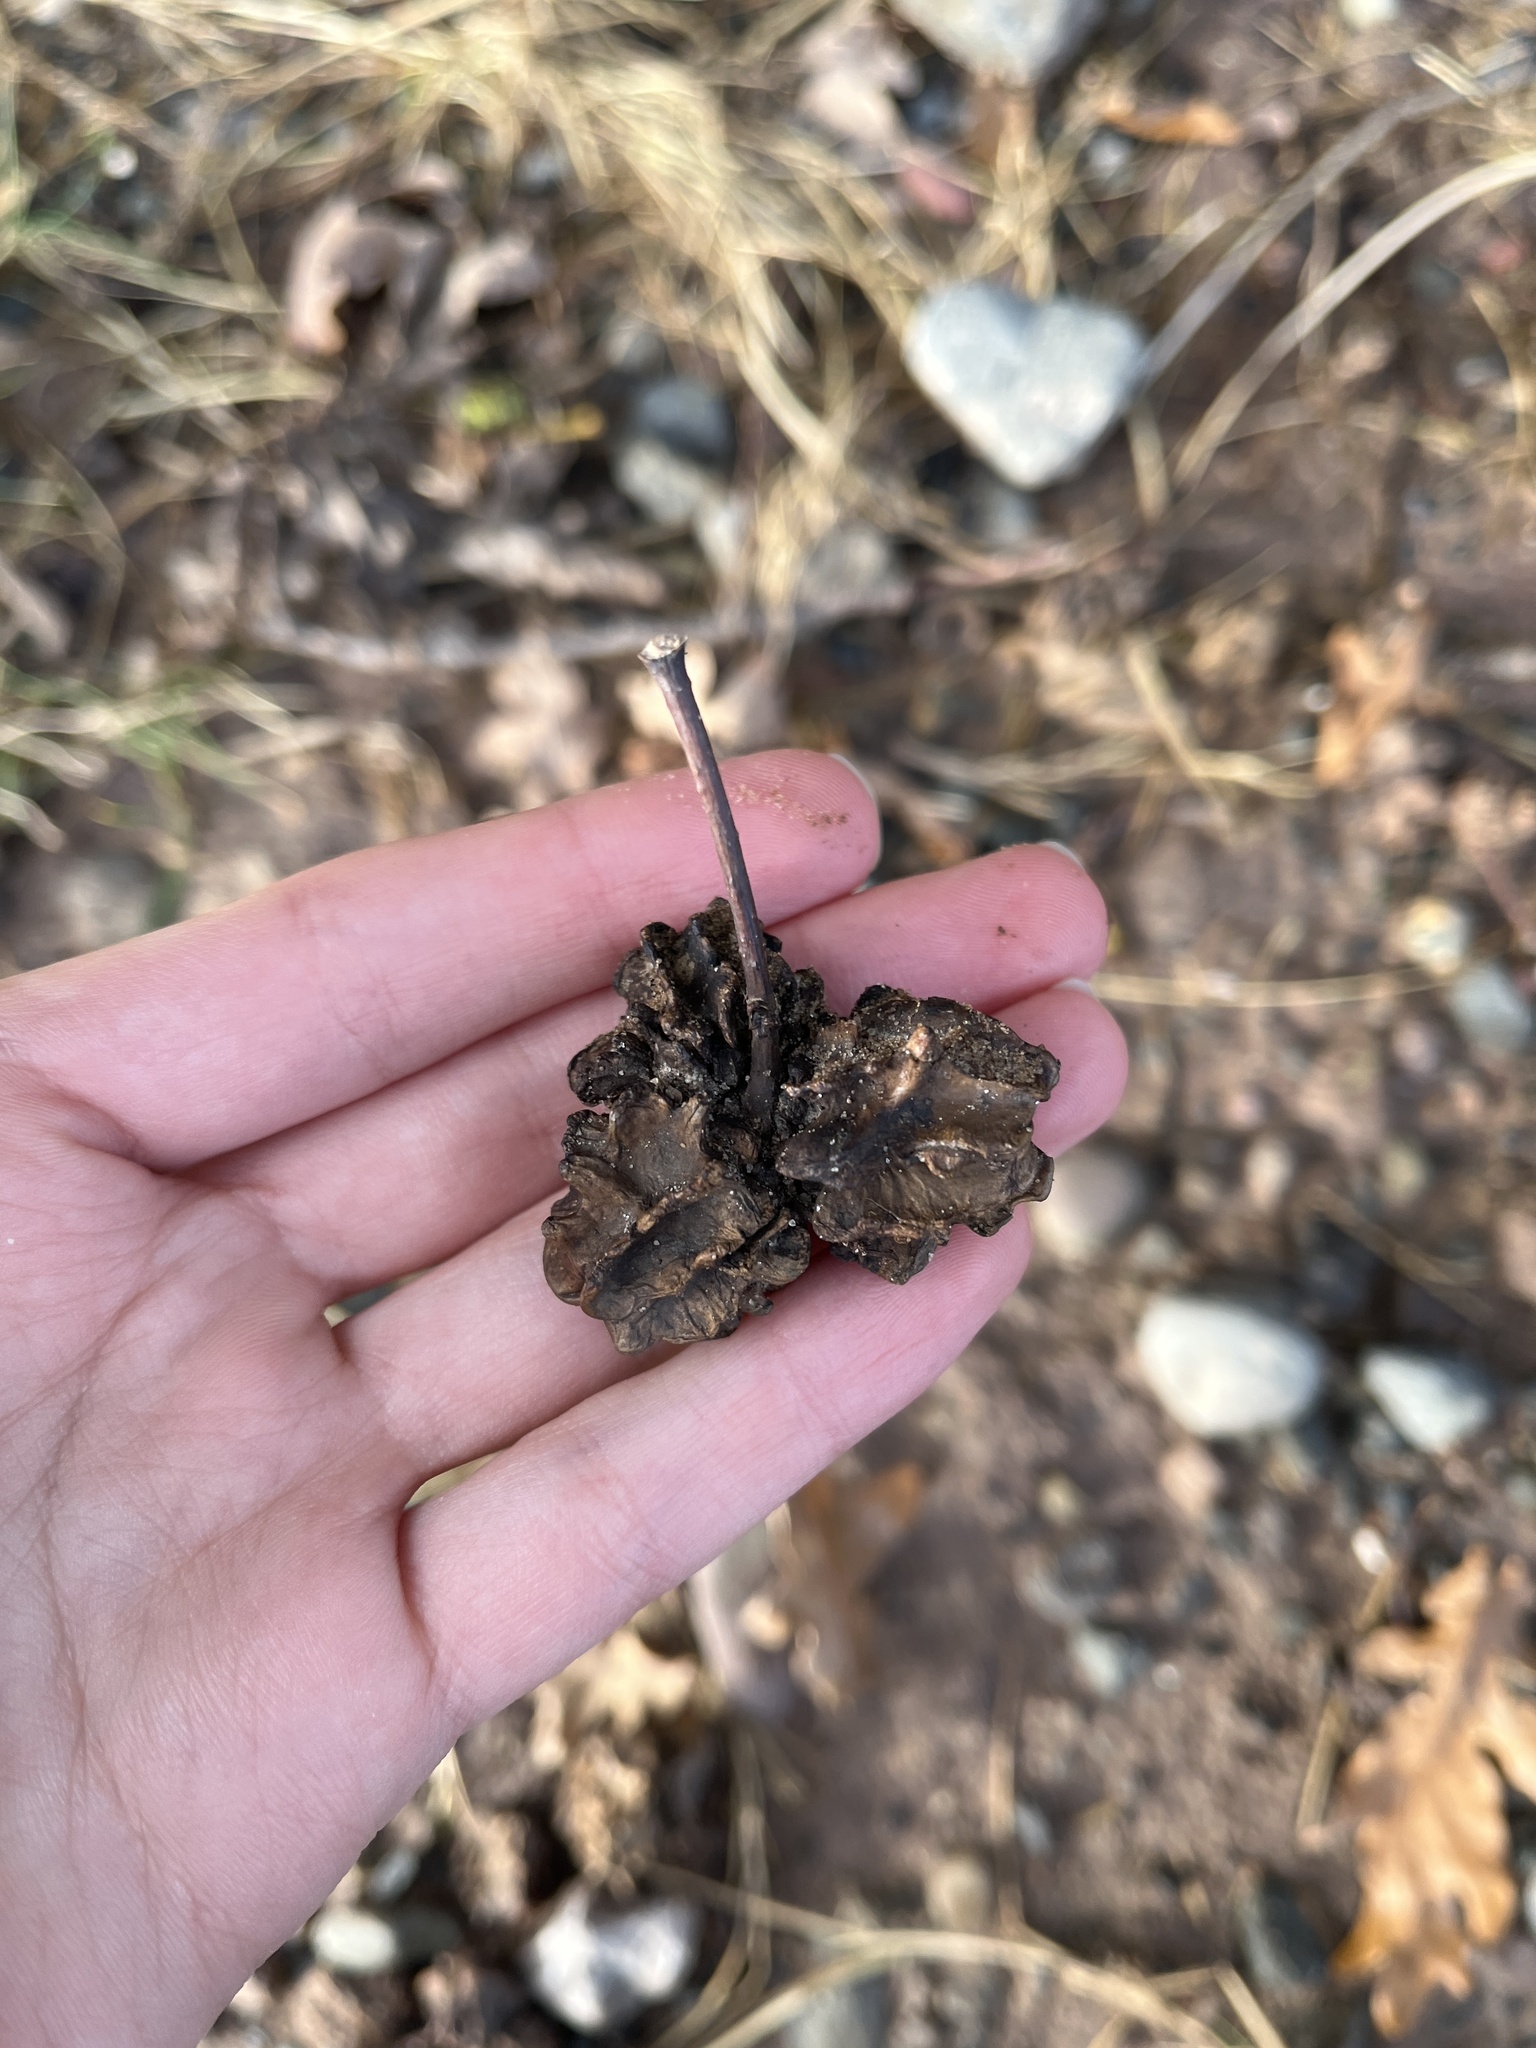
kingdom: Animalia
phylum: Arthropoda
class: Insecta
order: Hymenoptera
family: Cynipidae
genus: Andricus
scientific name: Andricus quercuscalicis
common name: Knopper gall
